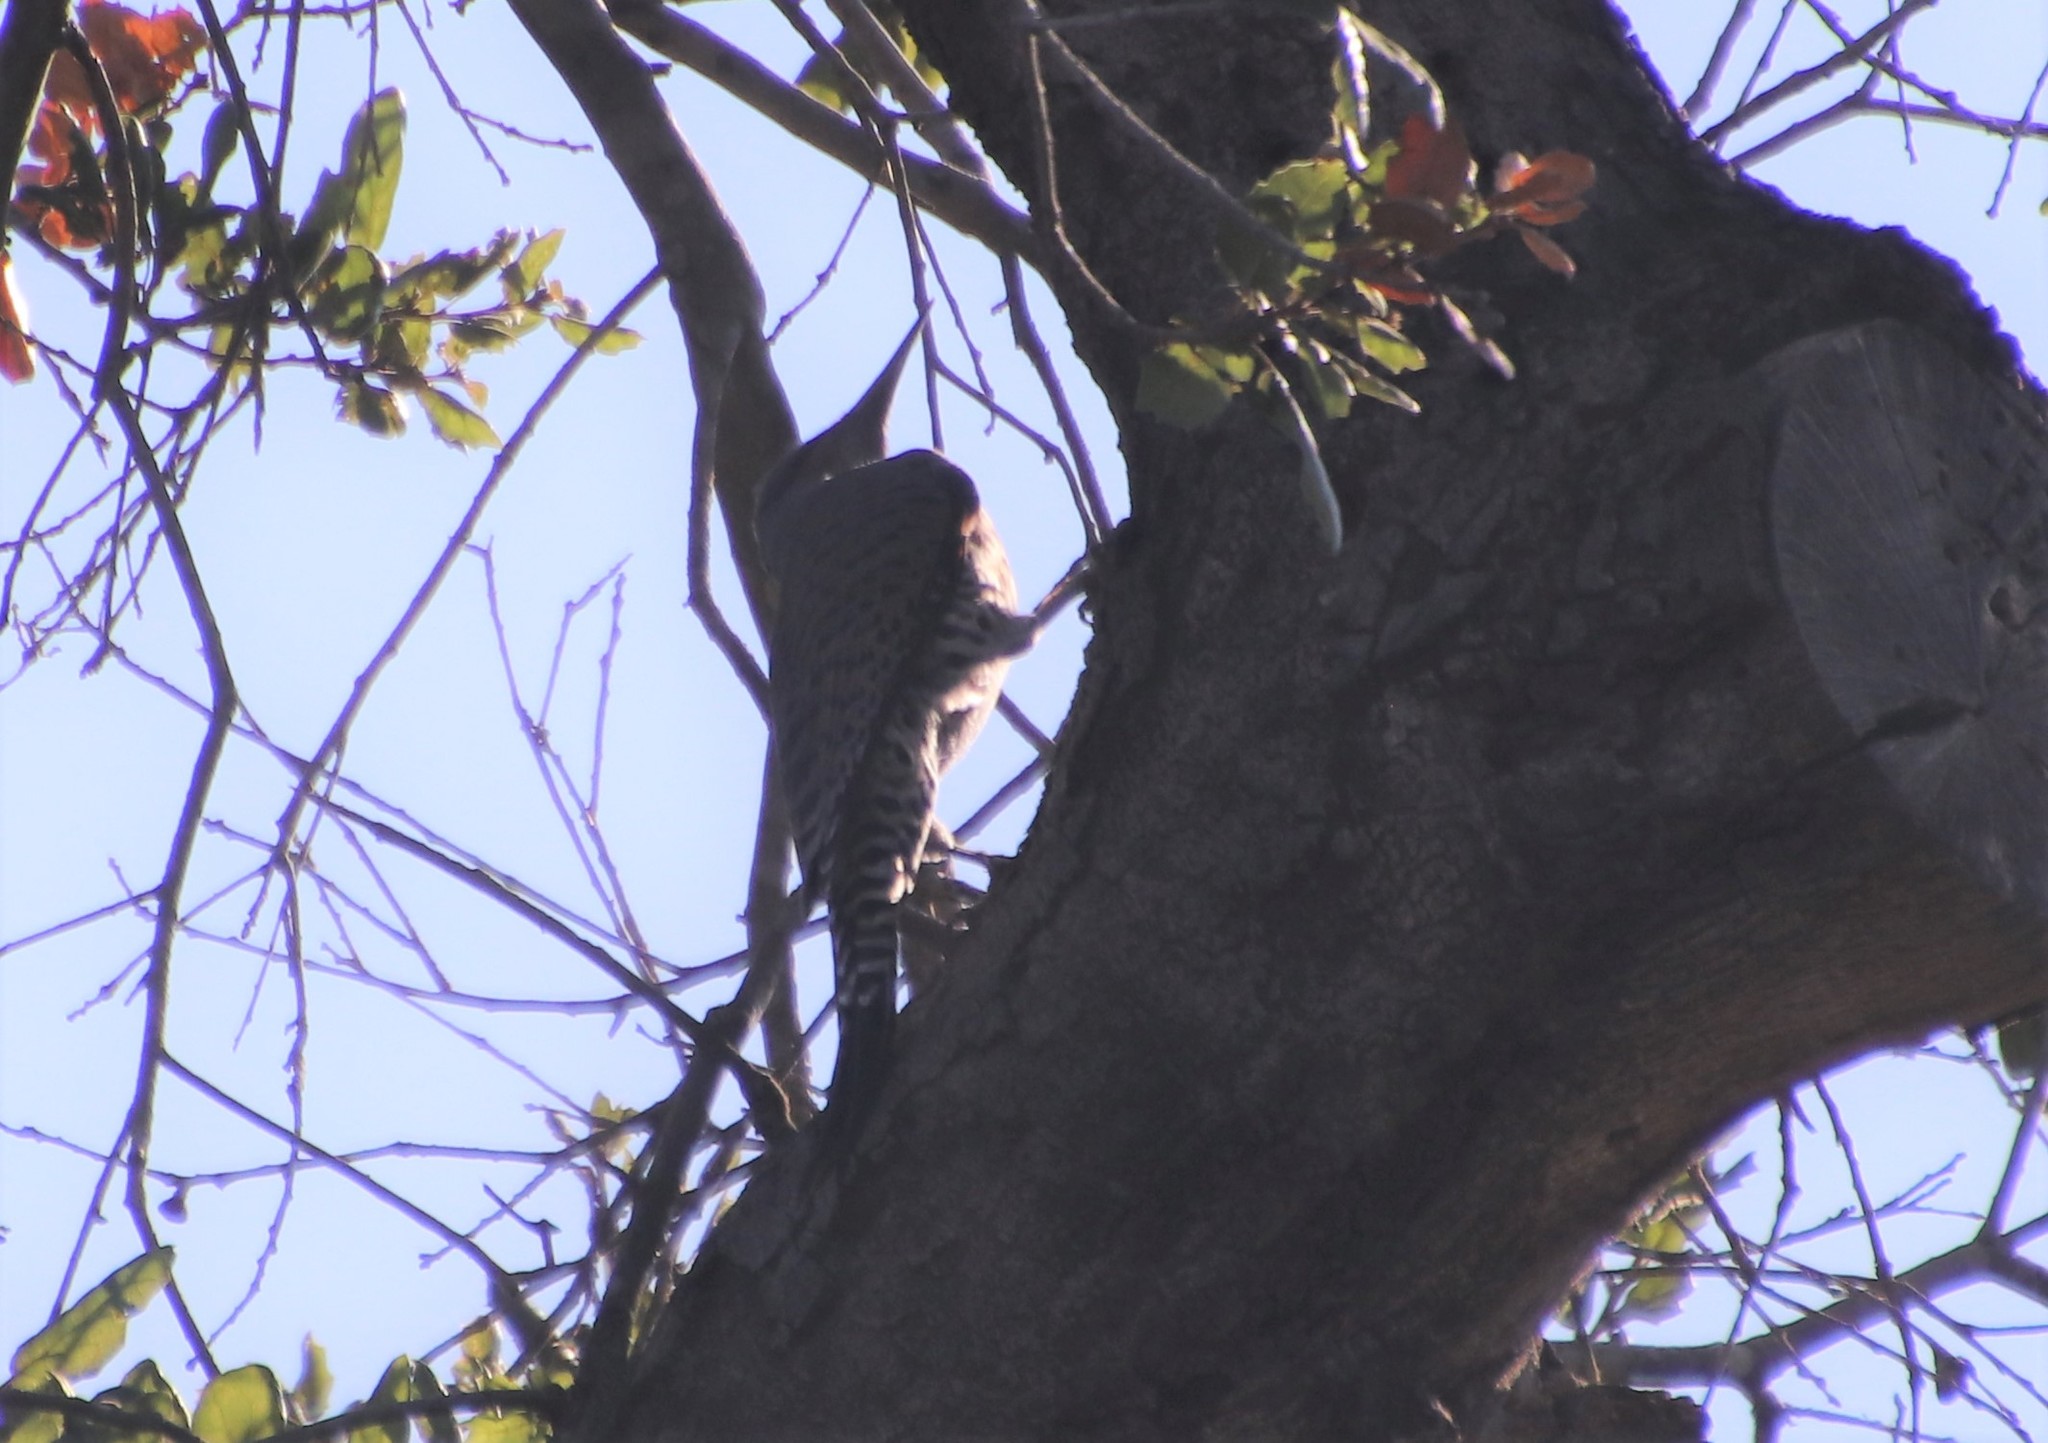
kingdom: Animalia
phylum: Chordata
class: Aves
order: Piciformes
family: Picidae
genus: Colaptes
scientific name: Colaptes auratus
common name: Northern flicker
